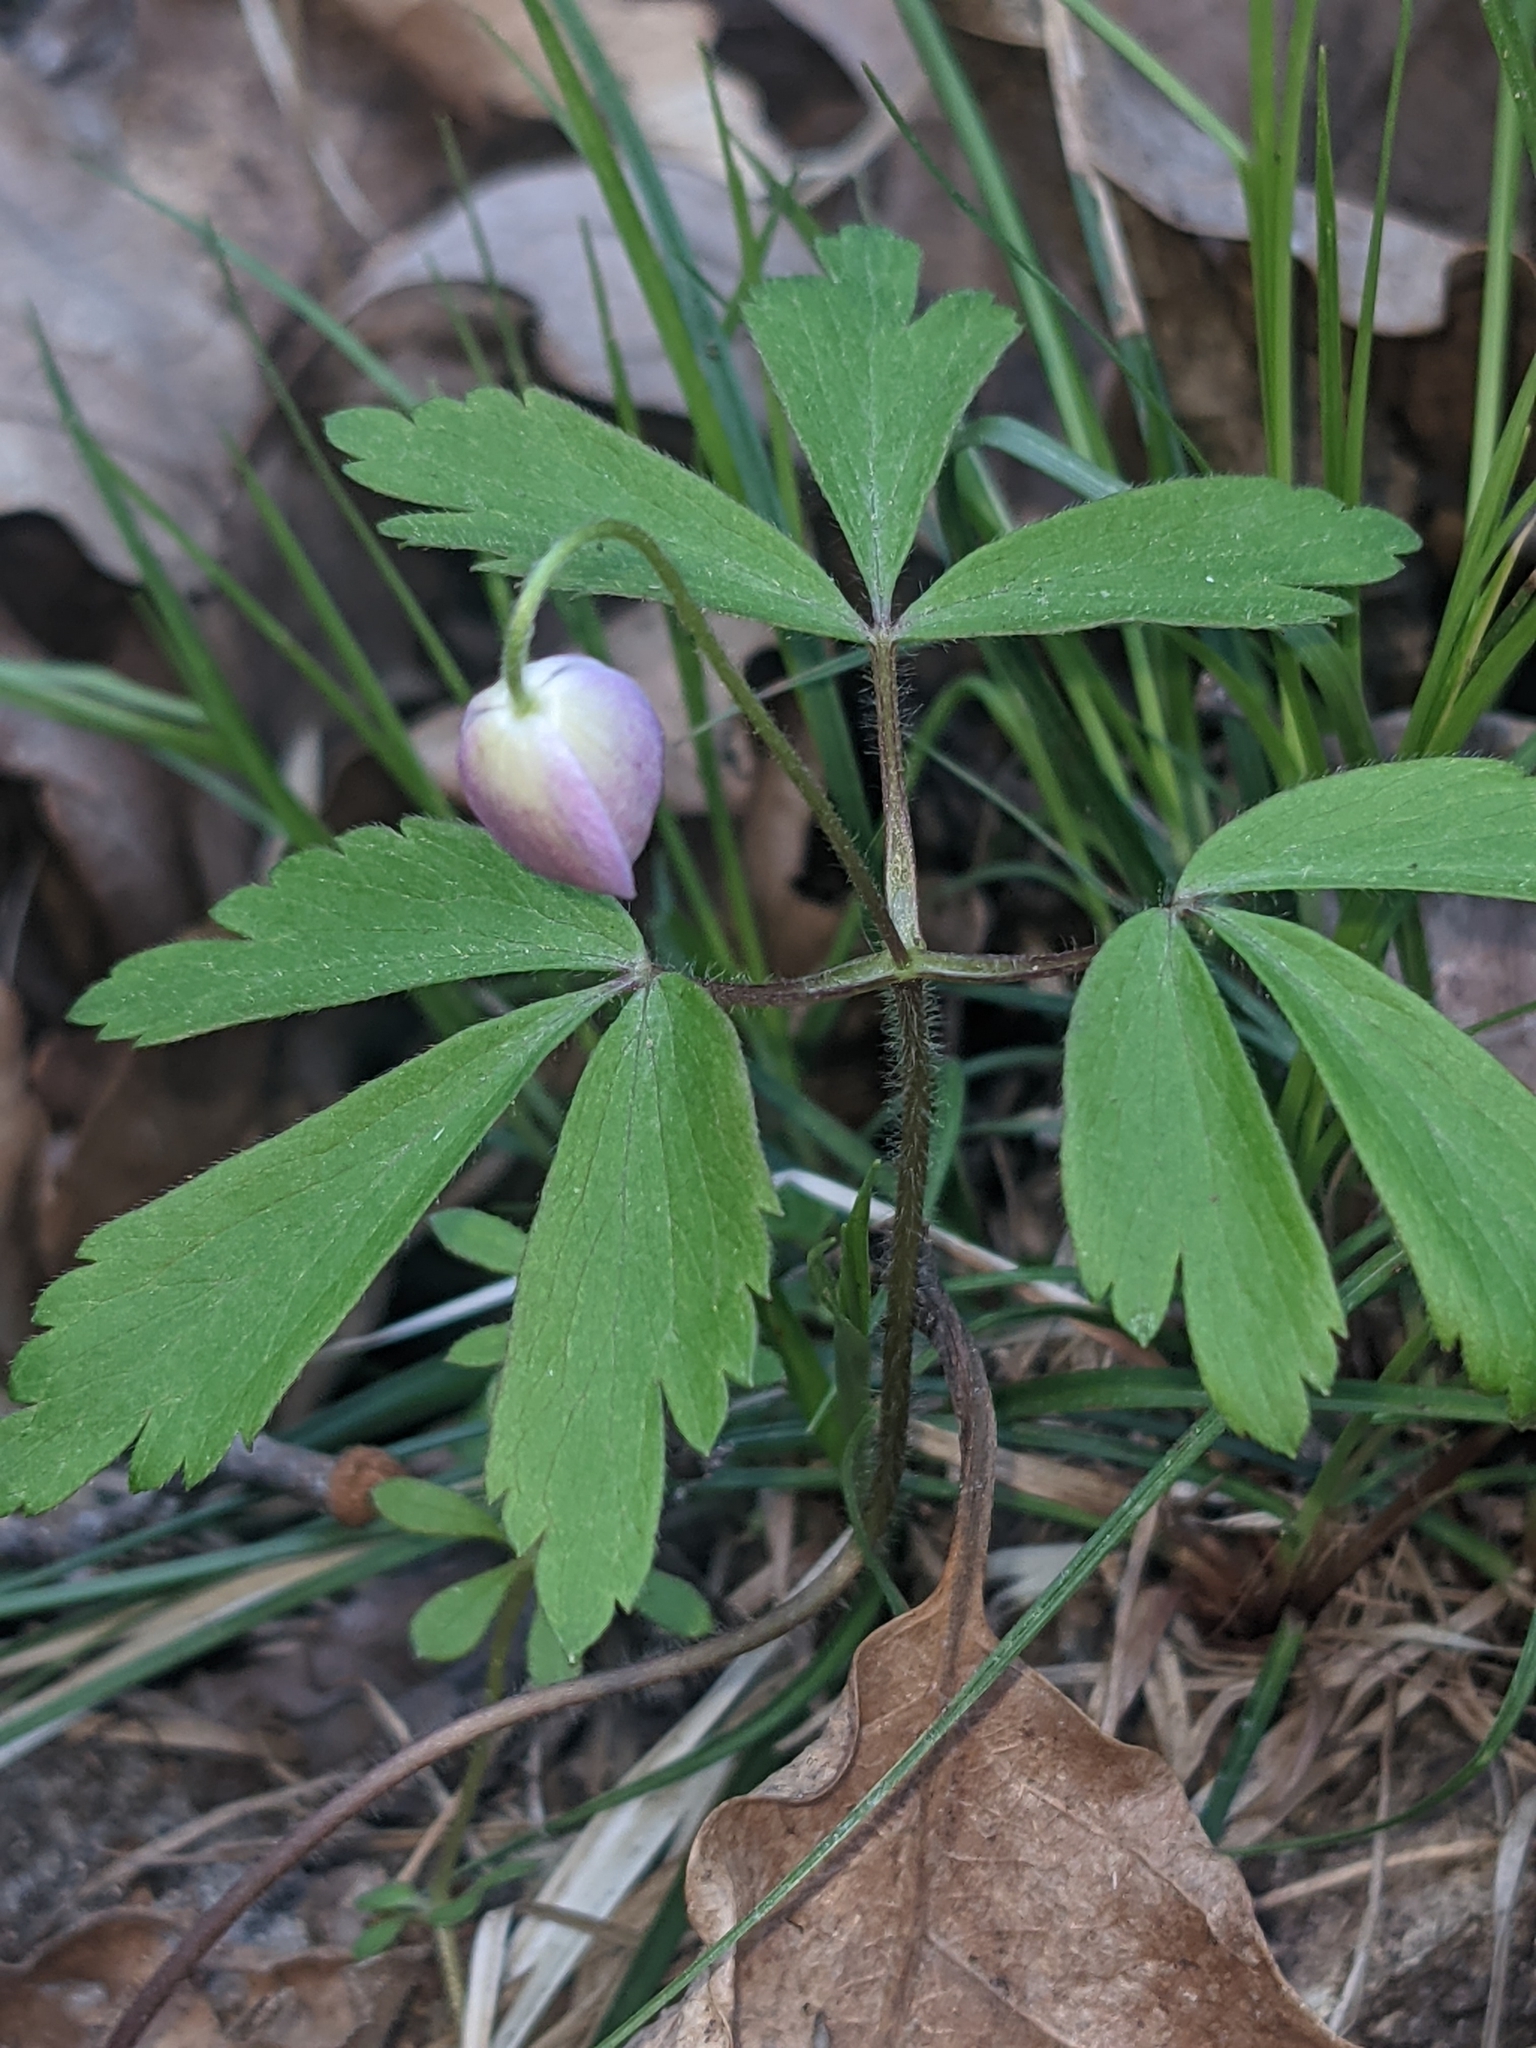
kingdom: Plantae
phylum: Tracheophyta
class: Magnoliopsida
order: Ranunculales
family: Ranunculaceae
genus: Anemone
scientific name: Anemone quinquefolia
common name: Wood anemone
